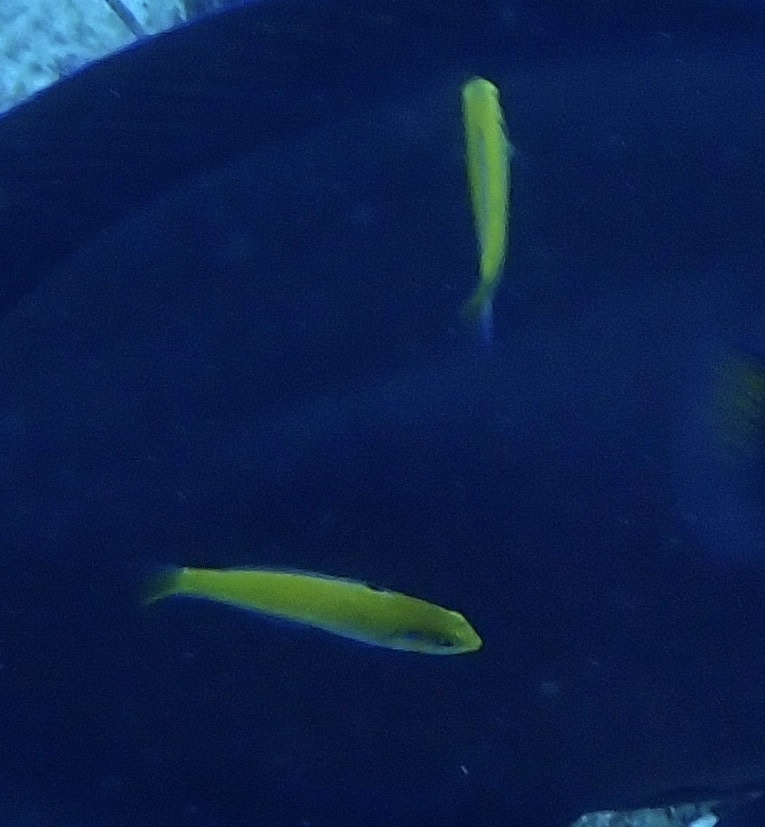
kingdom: Animalia
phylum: Chordata
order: Perciformes
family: Labridae
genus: Thalassoma
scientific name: Thalassoma bifasciatum
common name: Bluehead wrasse
